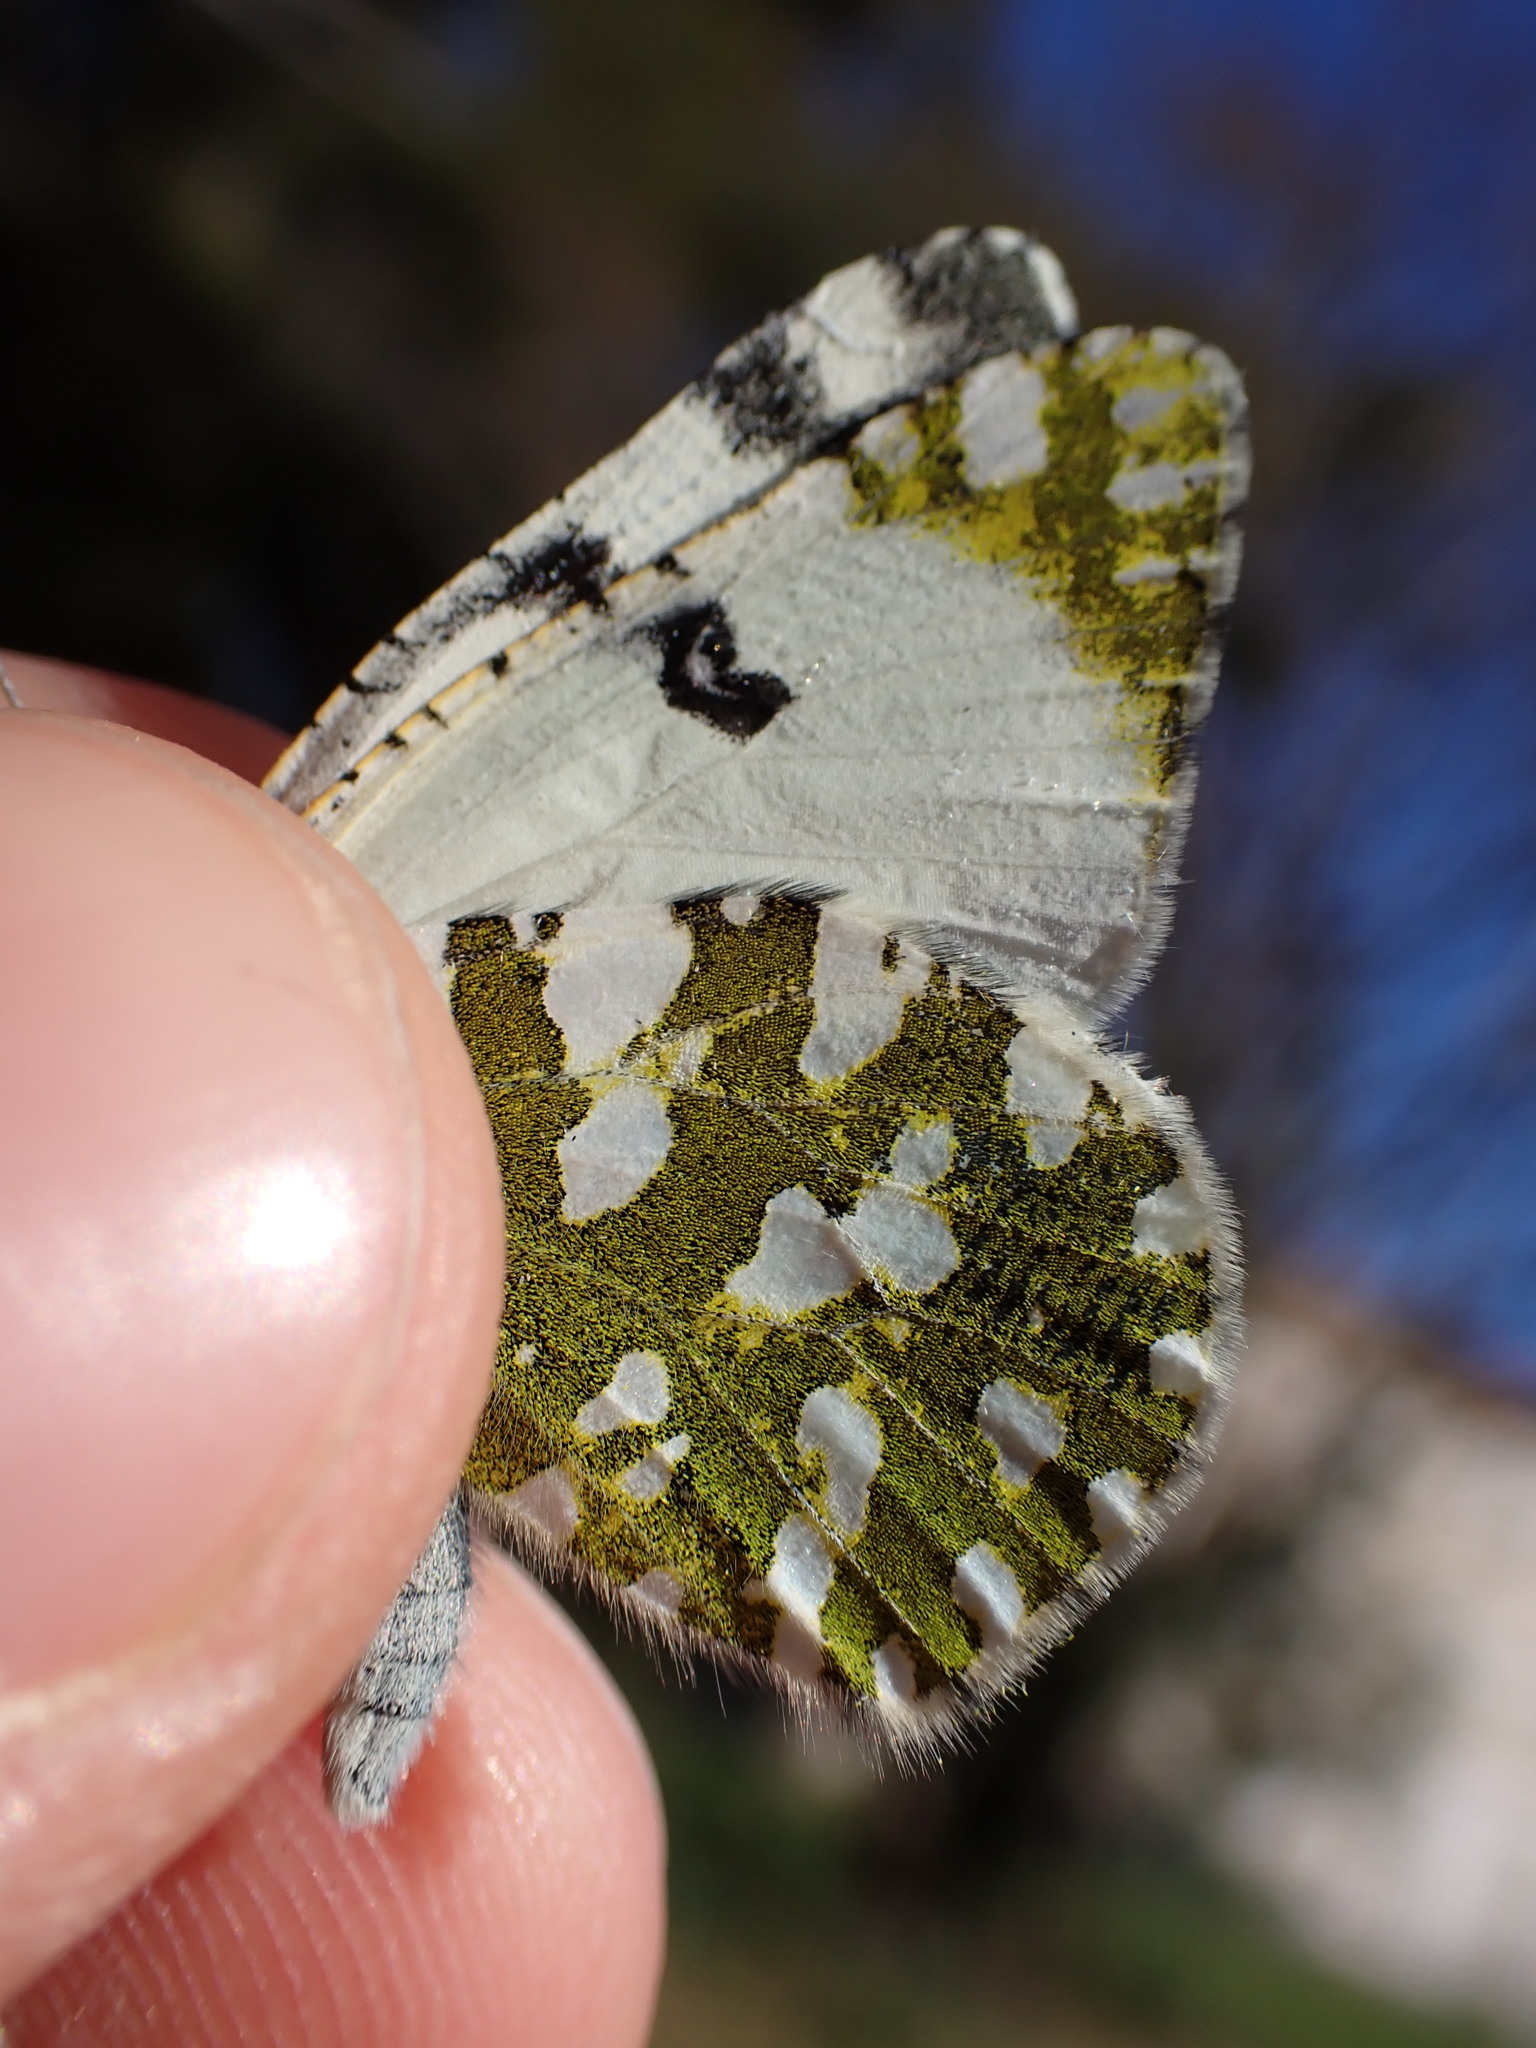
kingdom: Animalia
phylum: Arthropoda
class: Insecta
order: Lepidoptera
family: Pieridae
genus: Euchloe
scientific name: Euchloe crameri
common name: Western dappled white
